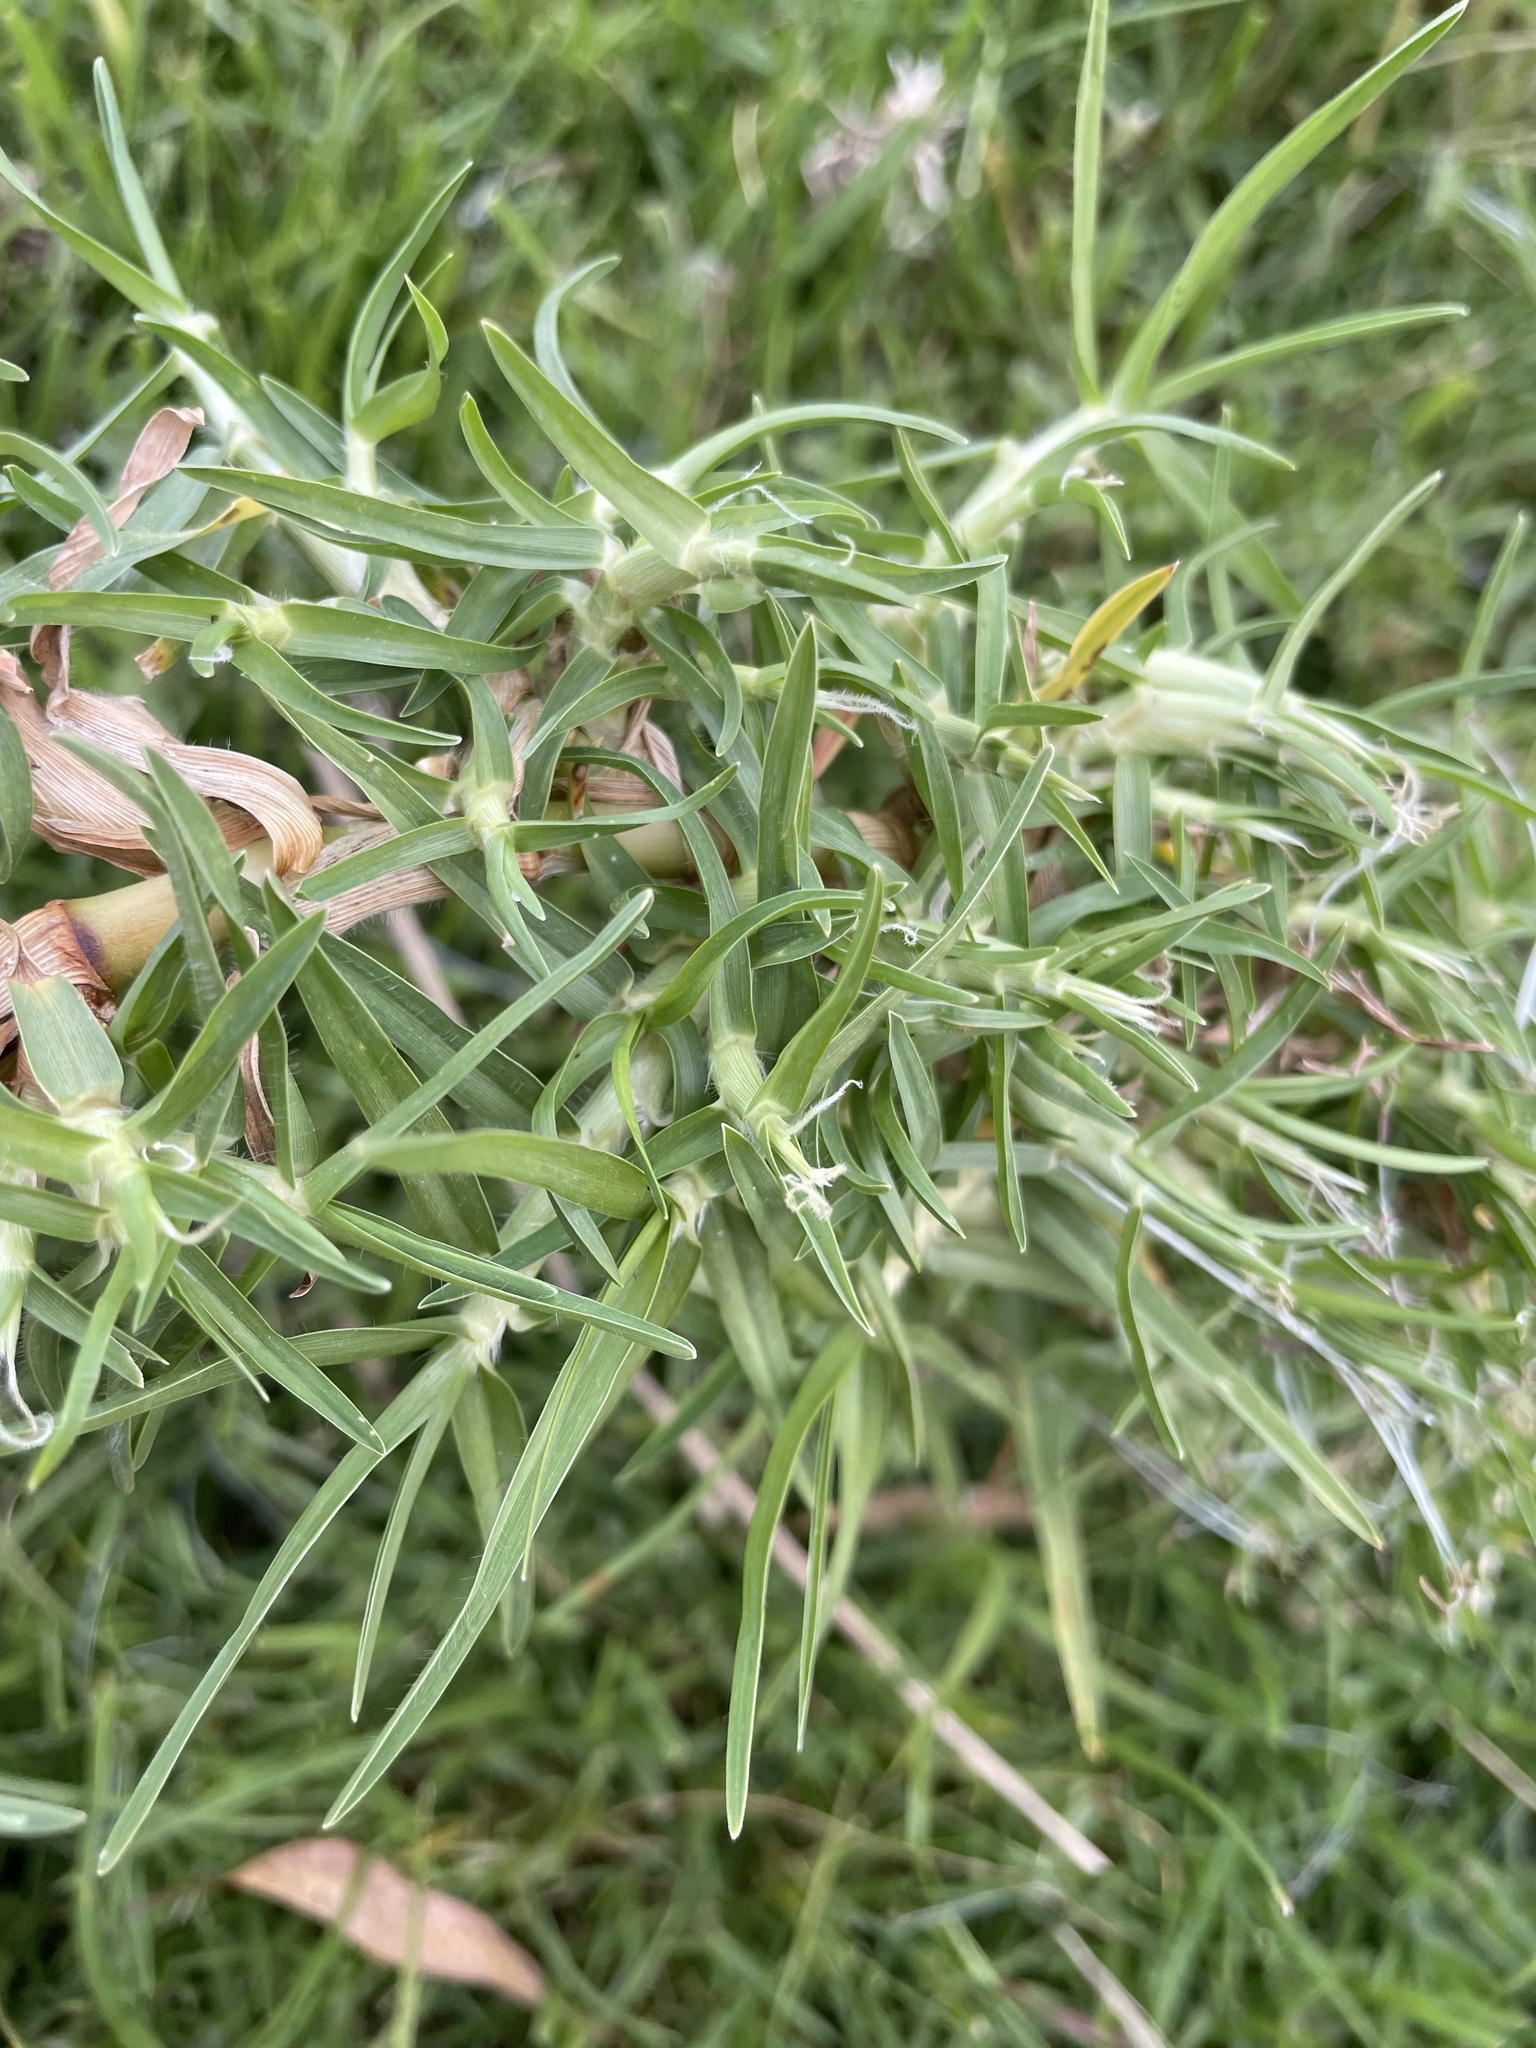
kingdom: Plantae
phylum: Tracheophyta
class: Liliopsida
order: Poales
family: Poaceae
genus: Cenchrus
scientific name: Cenchrus clandestinus
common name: Kikuyugrass
